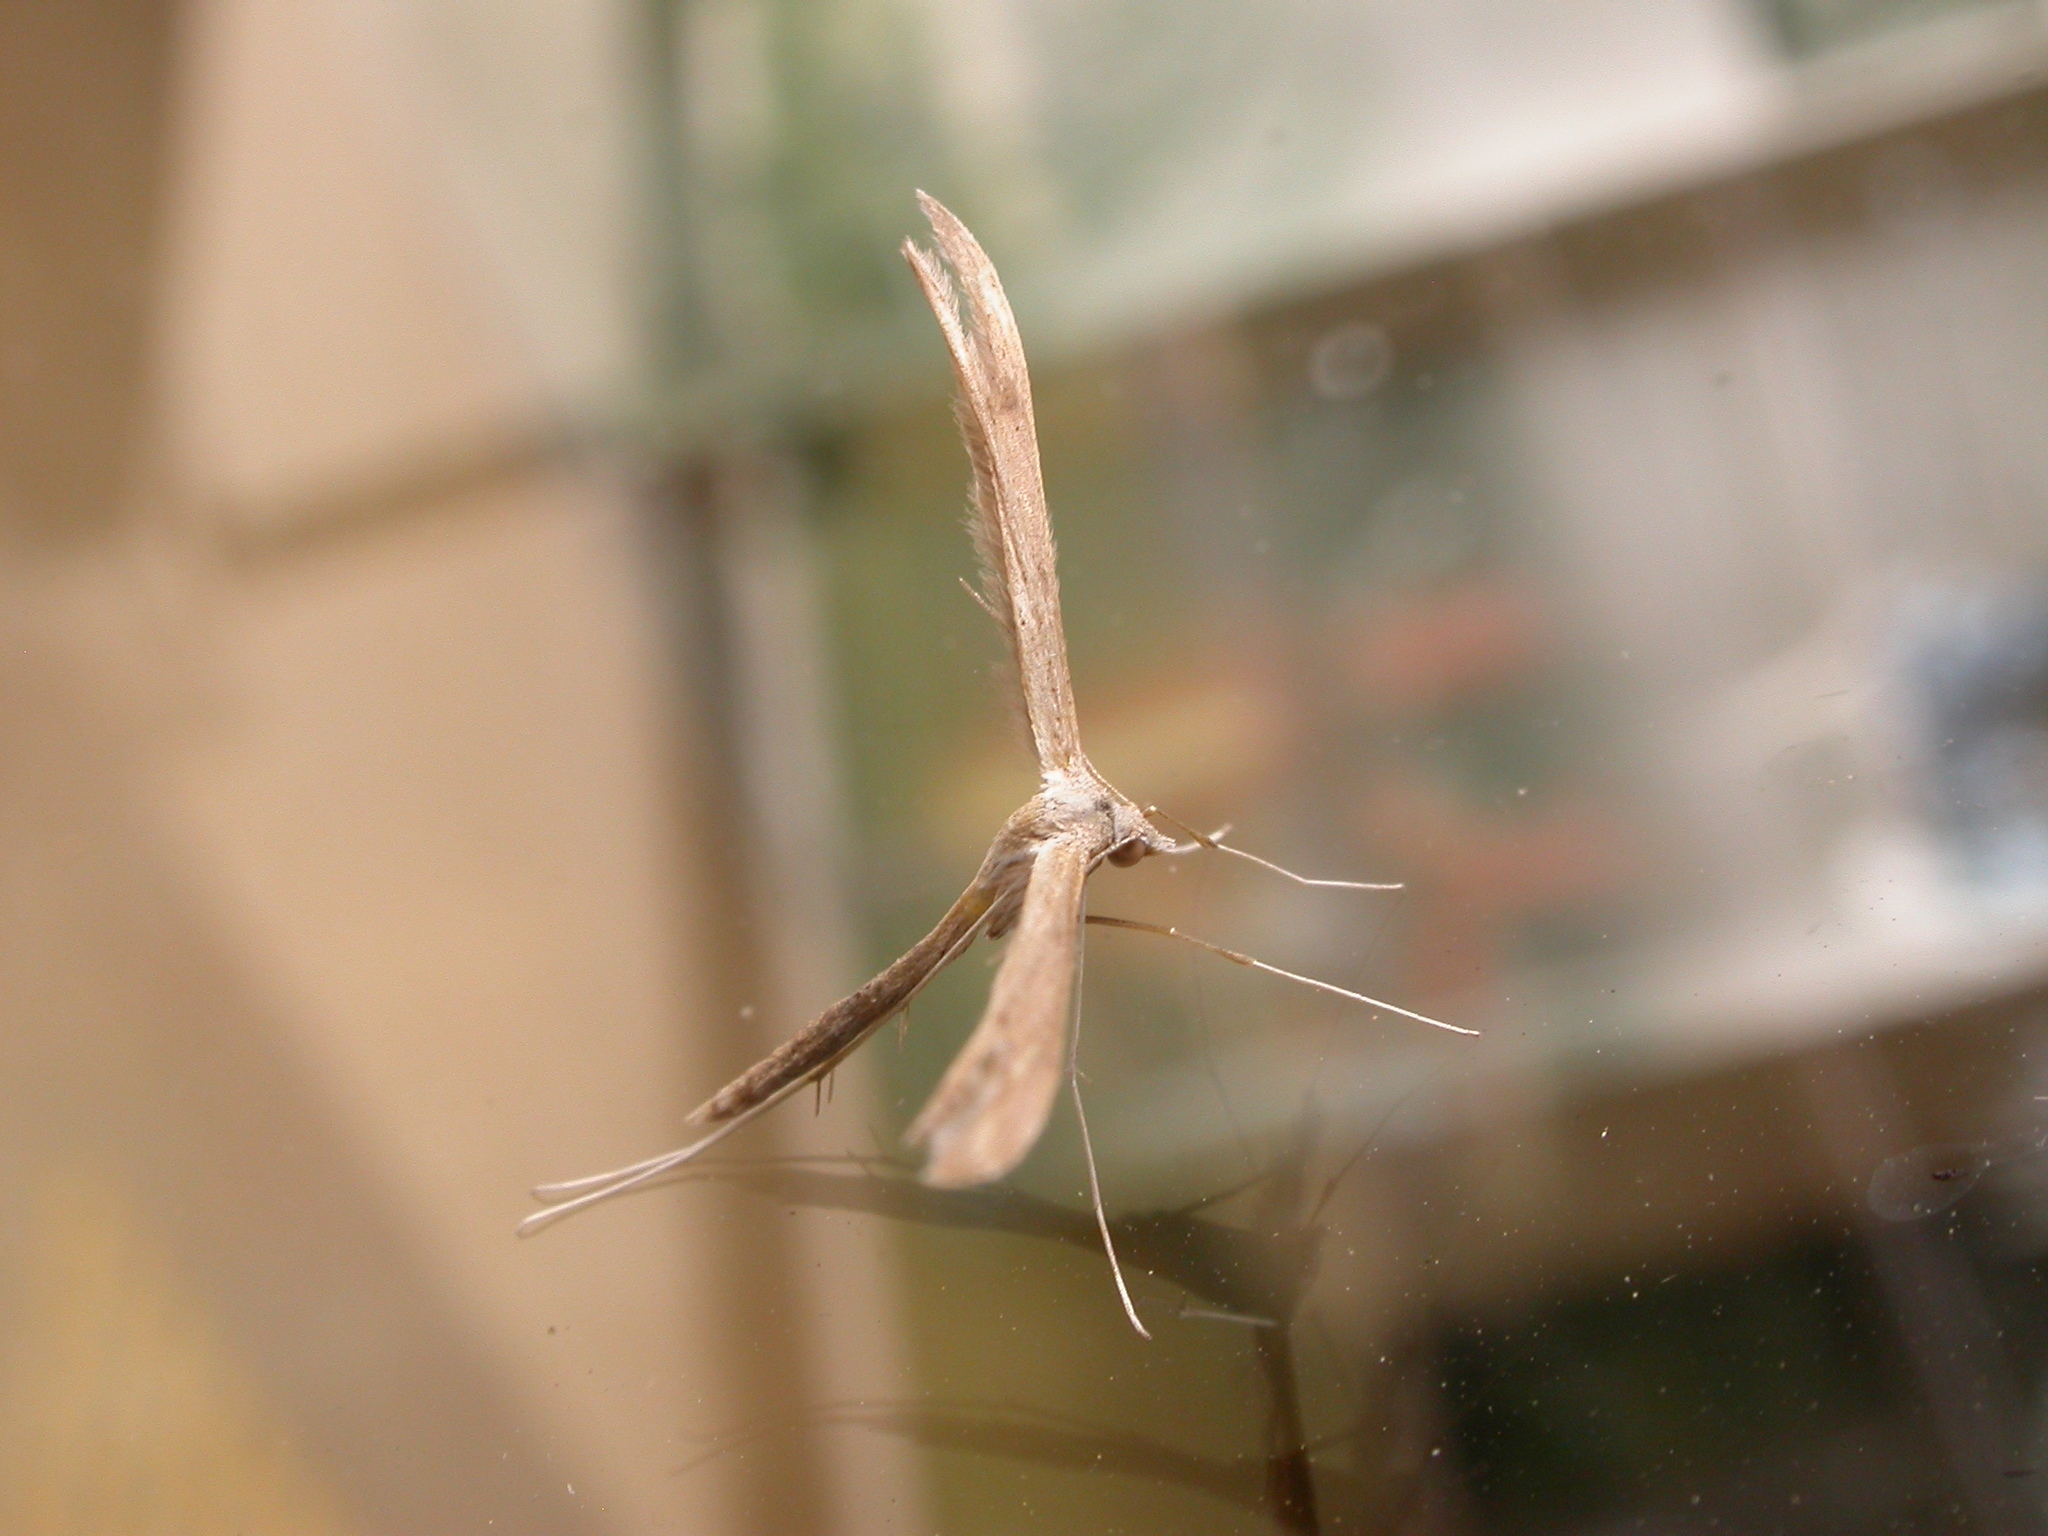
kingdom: Animalia
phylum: Arthropoda
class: Insecta
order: Lepidoptera
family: Pterophoridae
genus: Stenoptilia
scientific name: Stenoptilia zophodactylus
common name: Dowdy plume
